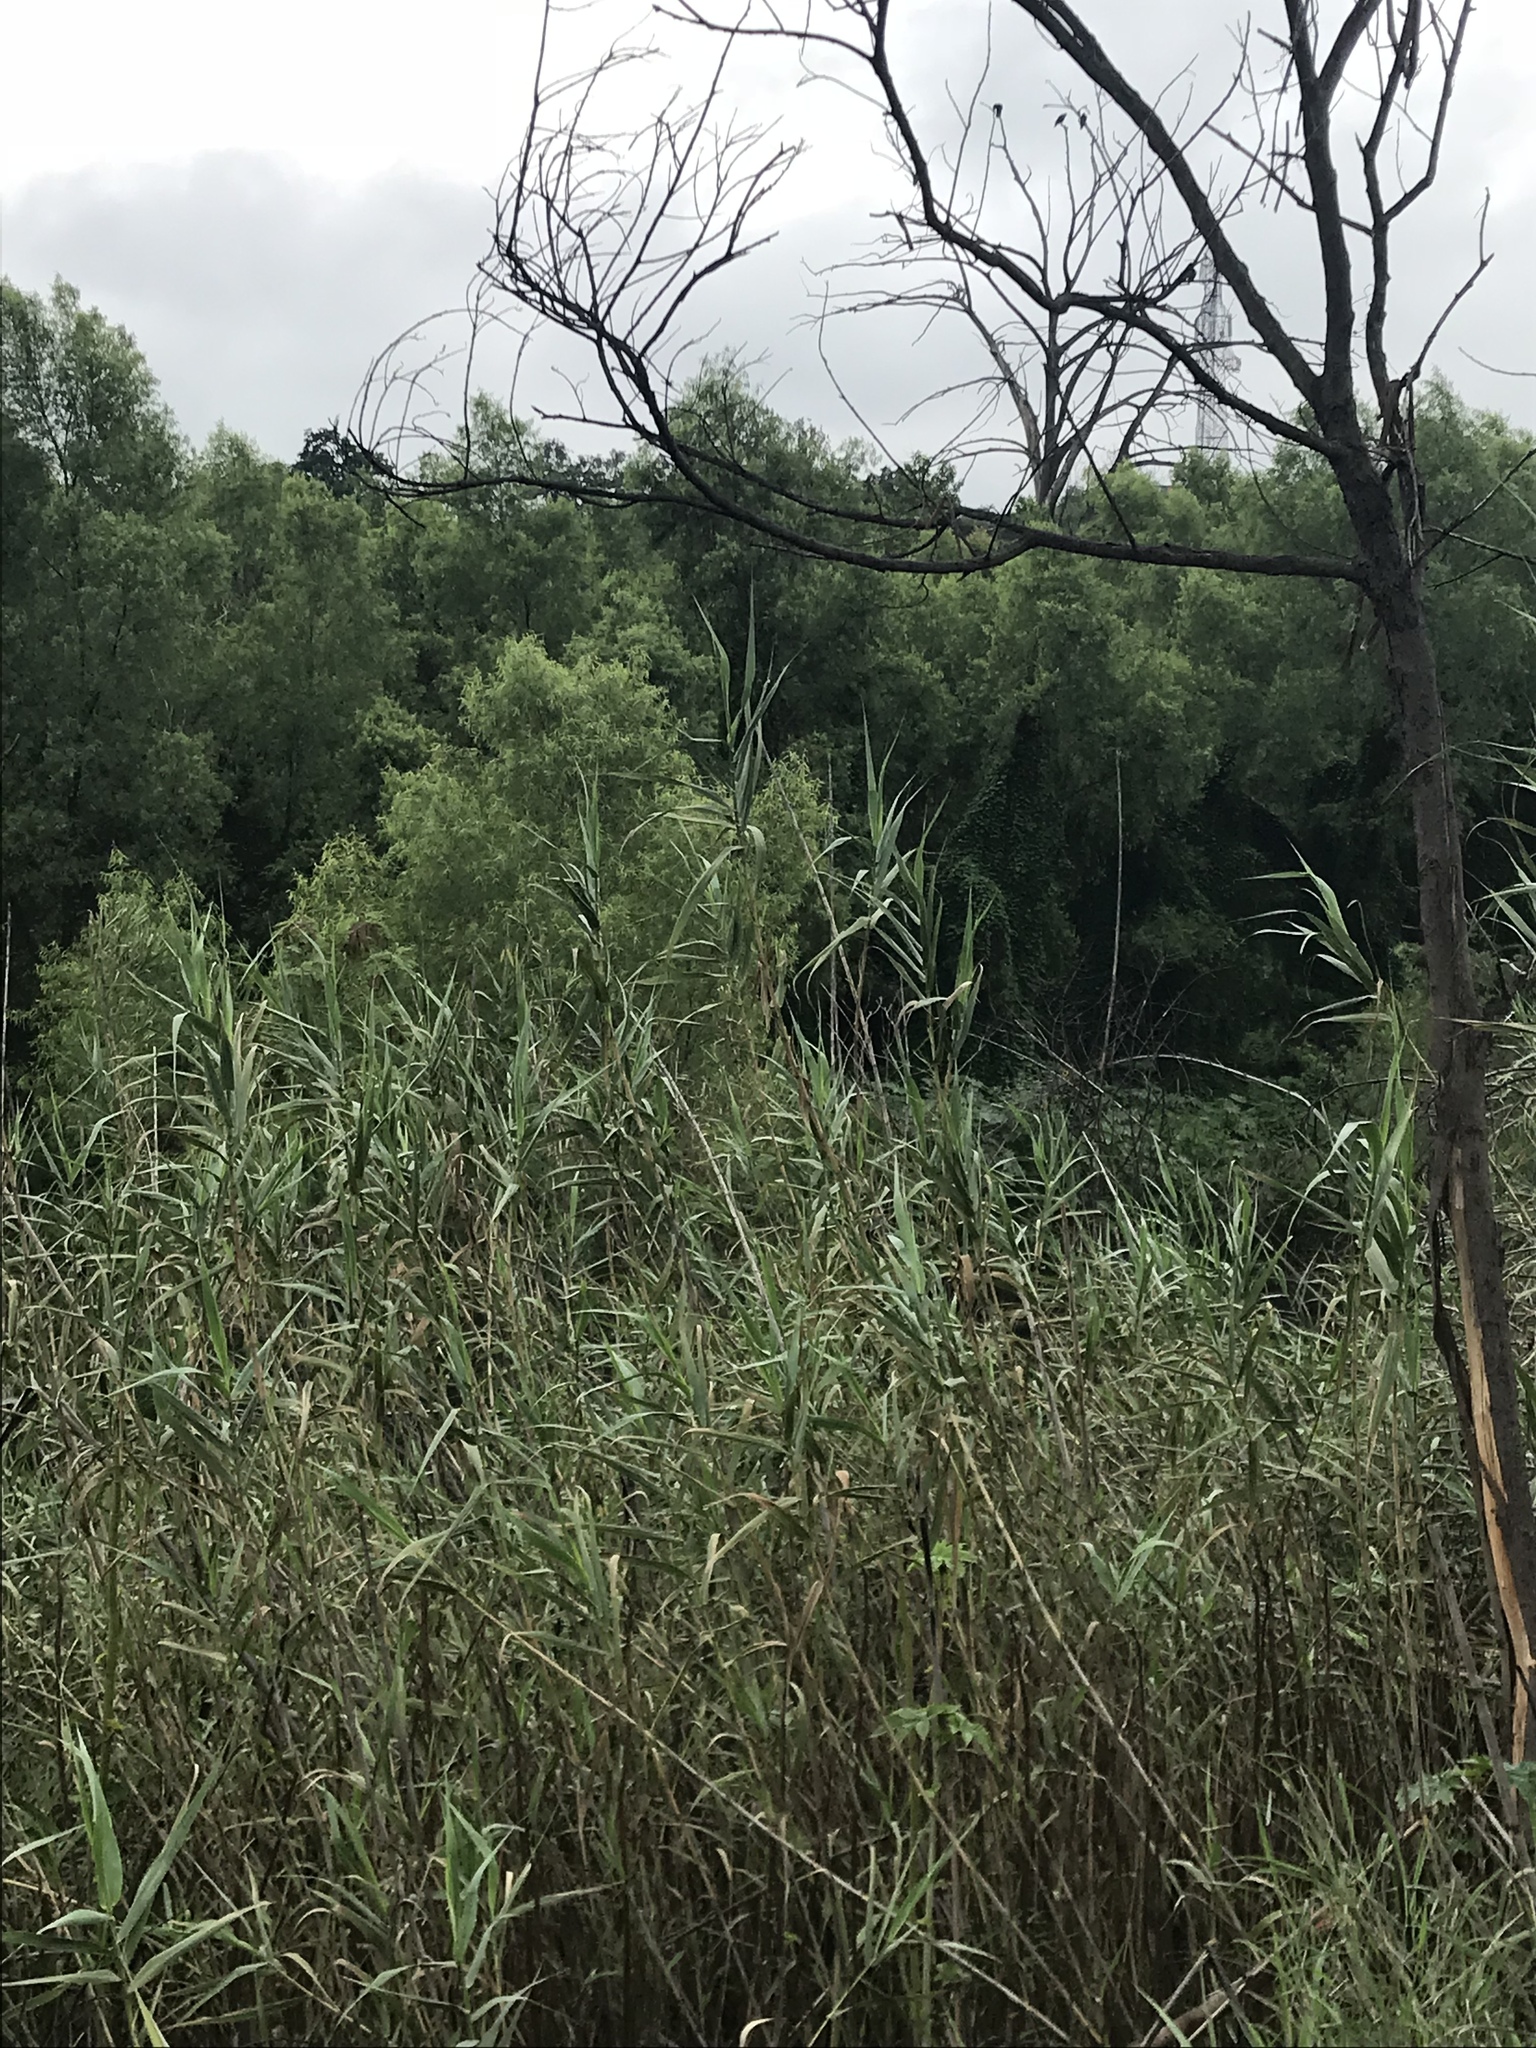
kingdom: Plantae
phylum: Tracheophyta
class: Liliopsida
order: Poales
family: Poaceae
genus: Arundo
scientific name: Arundo donax
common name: Giant reed
